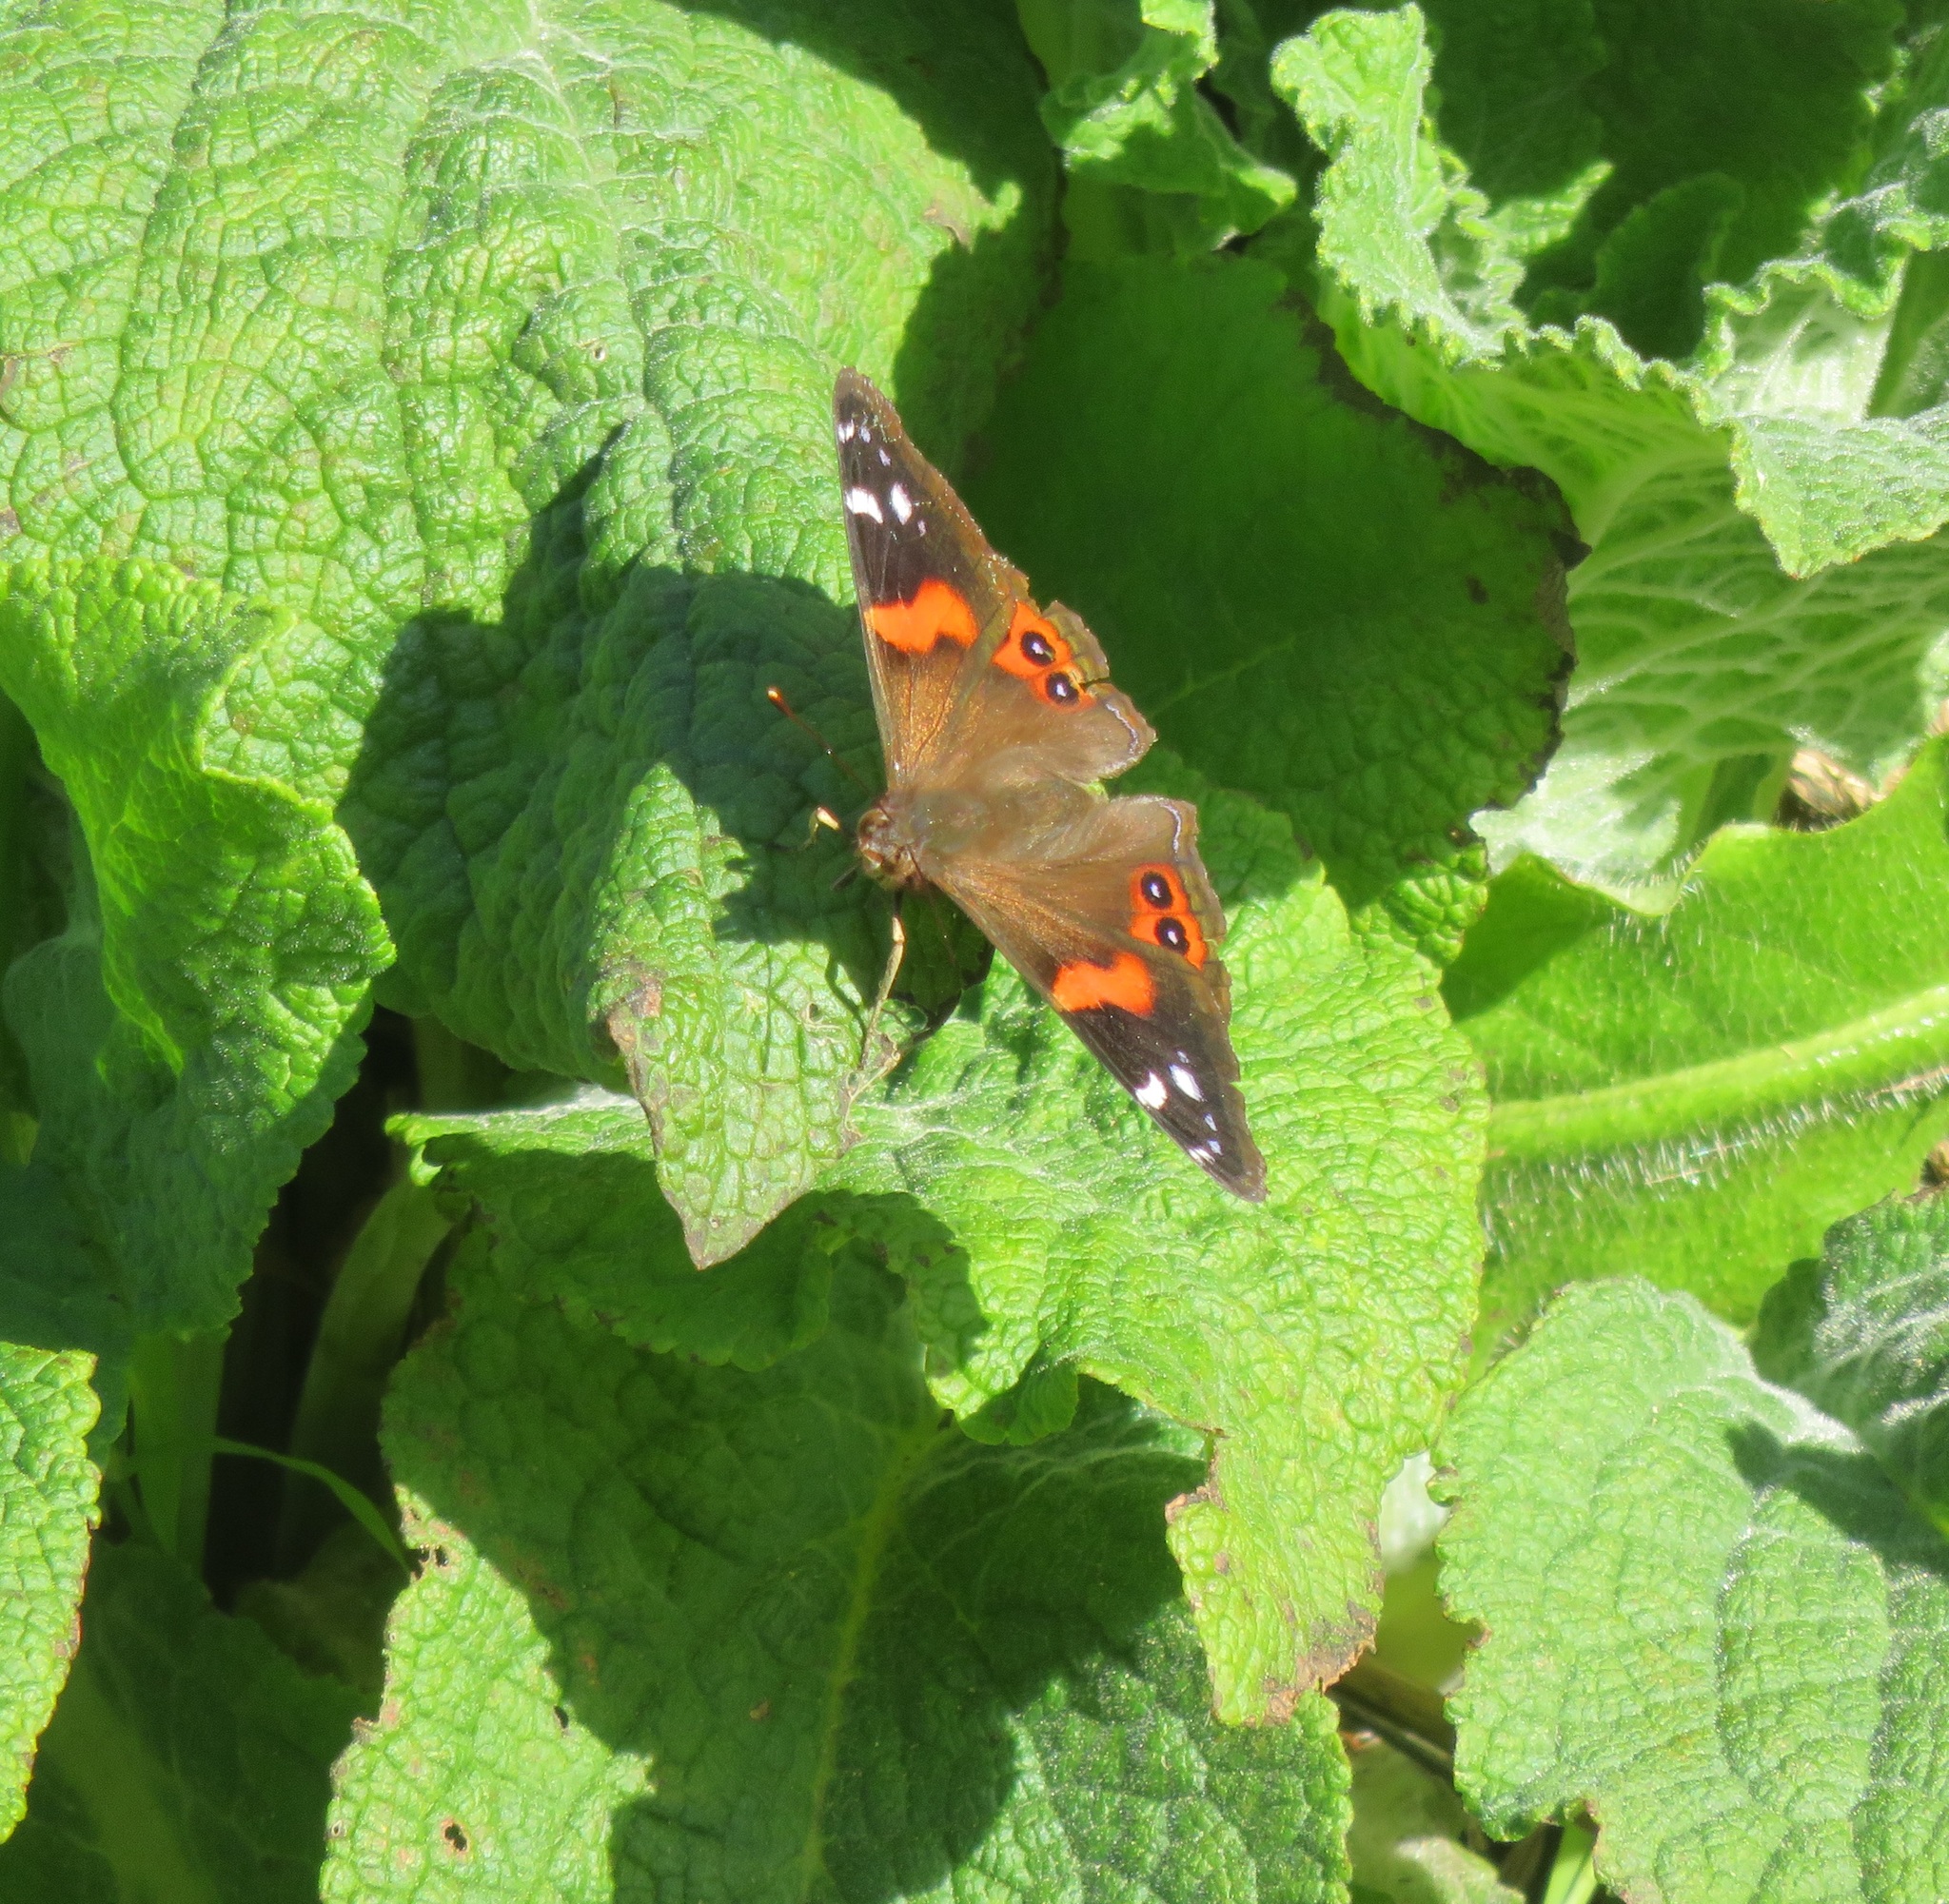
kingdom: Animalia
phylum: Arthropoda
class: Insecta
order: Lepidoptera
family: Nymphalidae
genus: Vanessa
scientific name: Vanessa gonerilla
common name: New zealand red admiral
